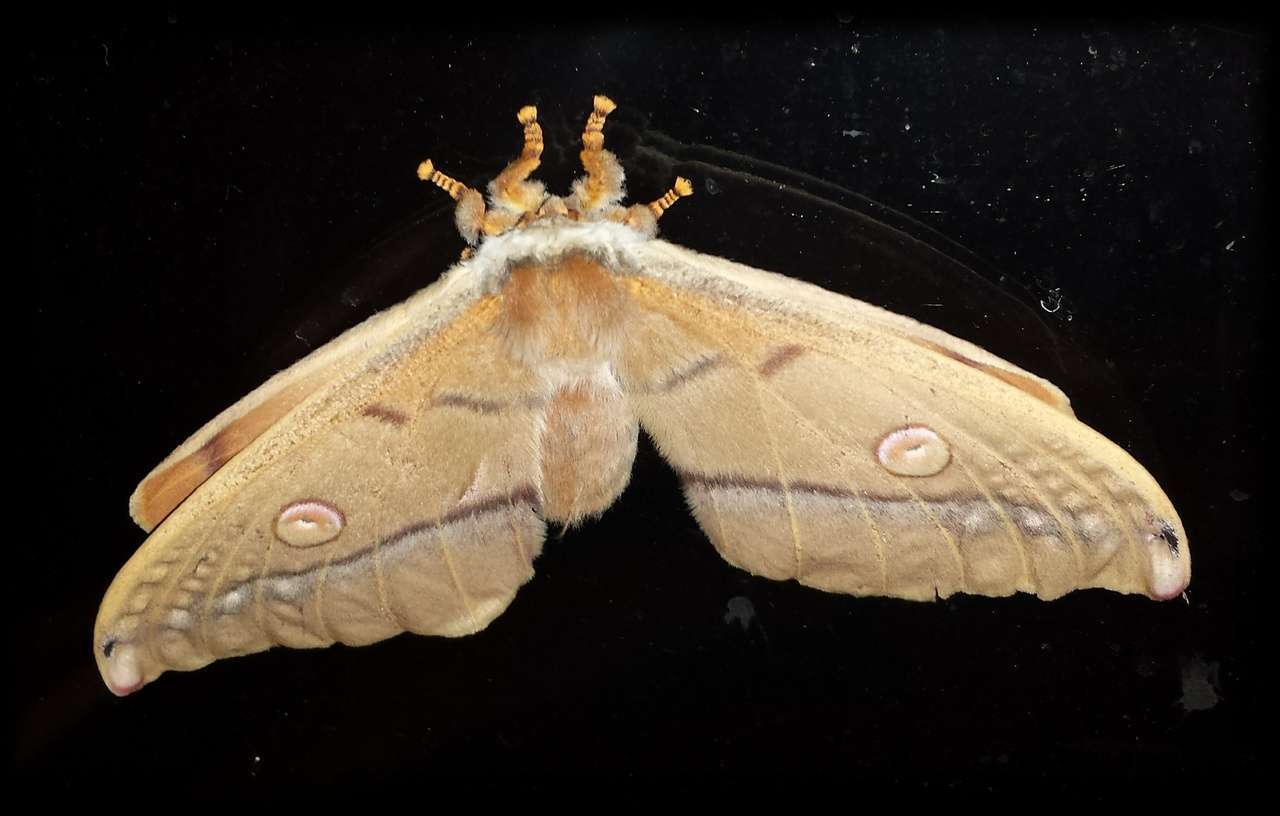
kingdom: Animalia
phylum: Arthropoda
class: Insecta
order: Lepidoptera
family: Saturniidae
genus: Opodiphthera
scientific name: Opodiphthera
